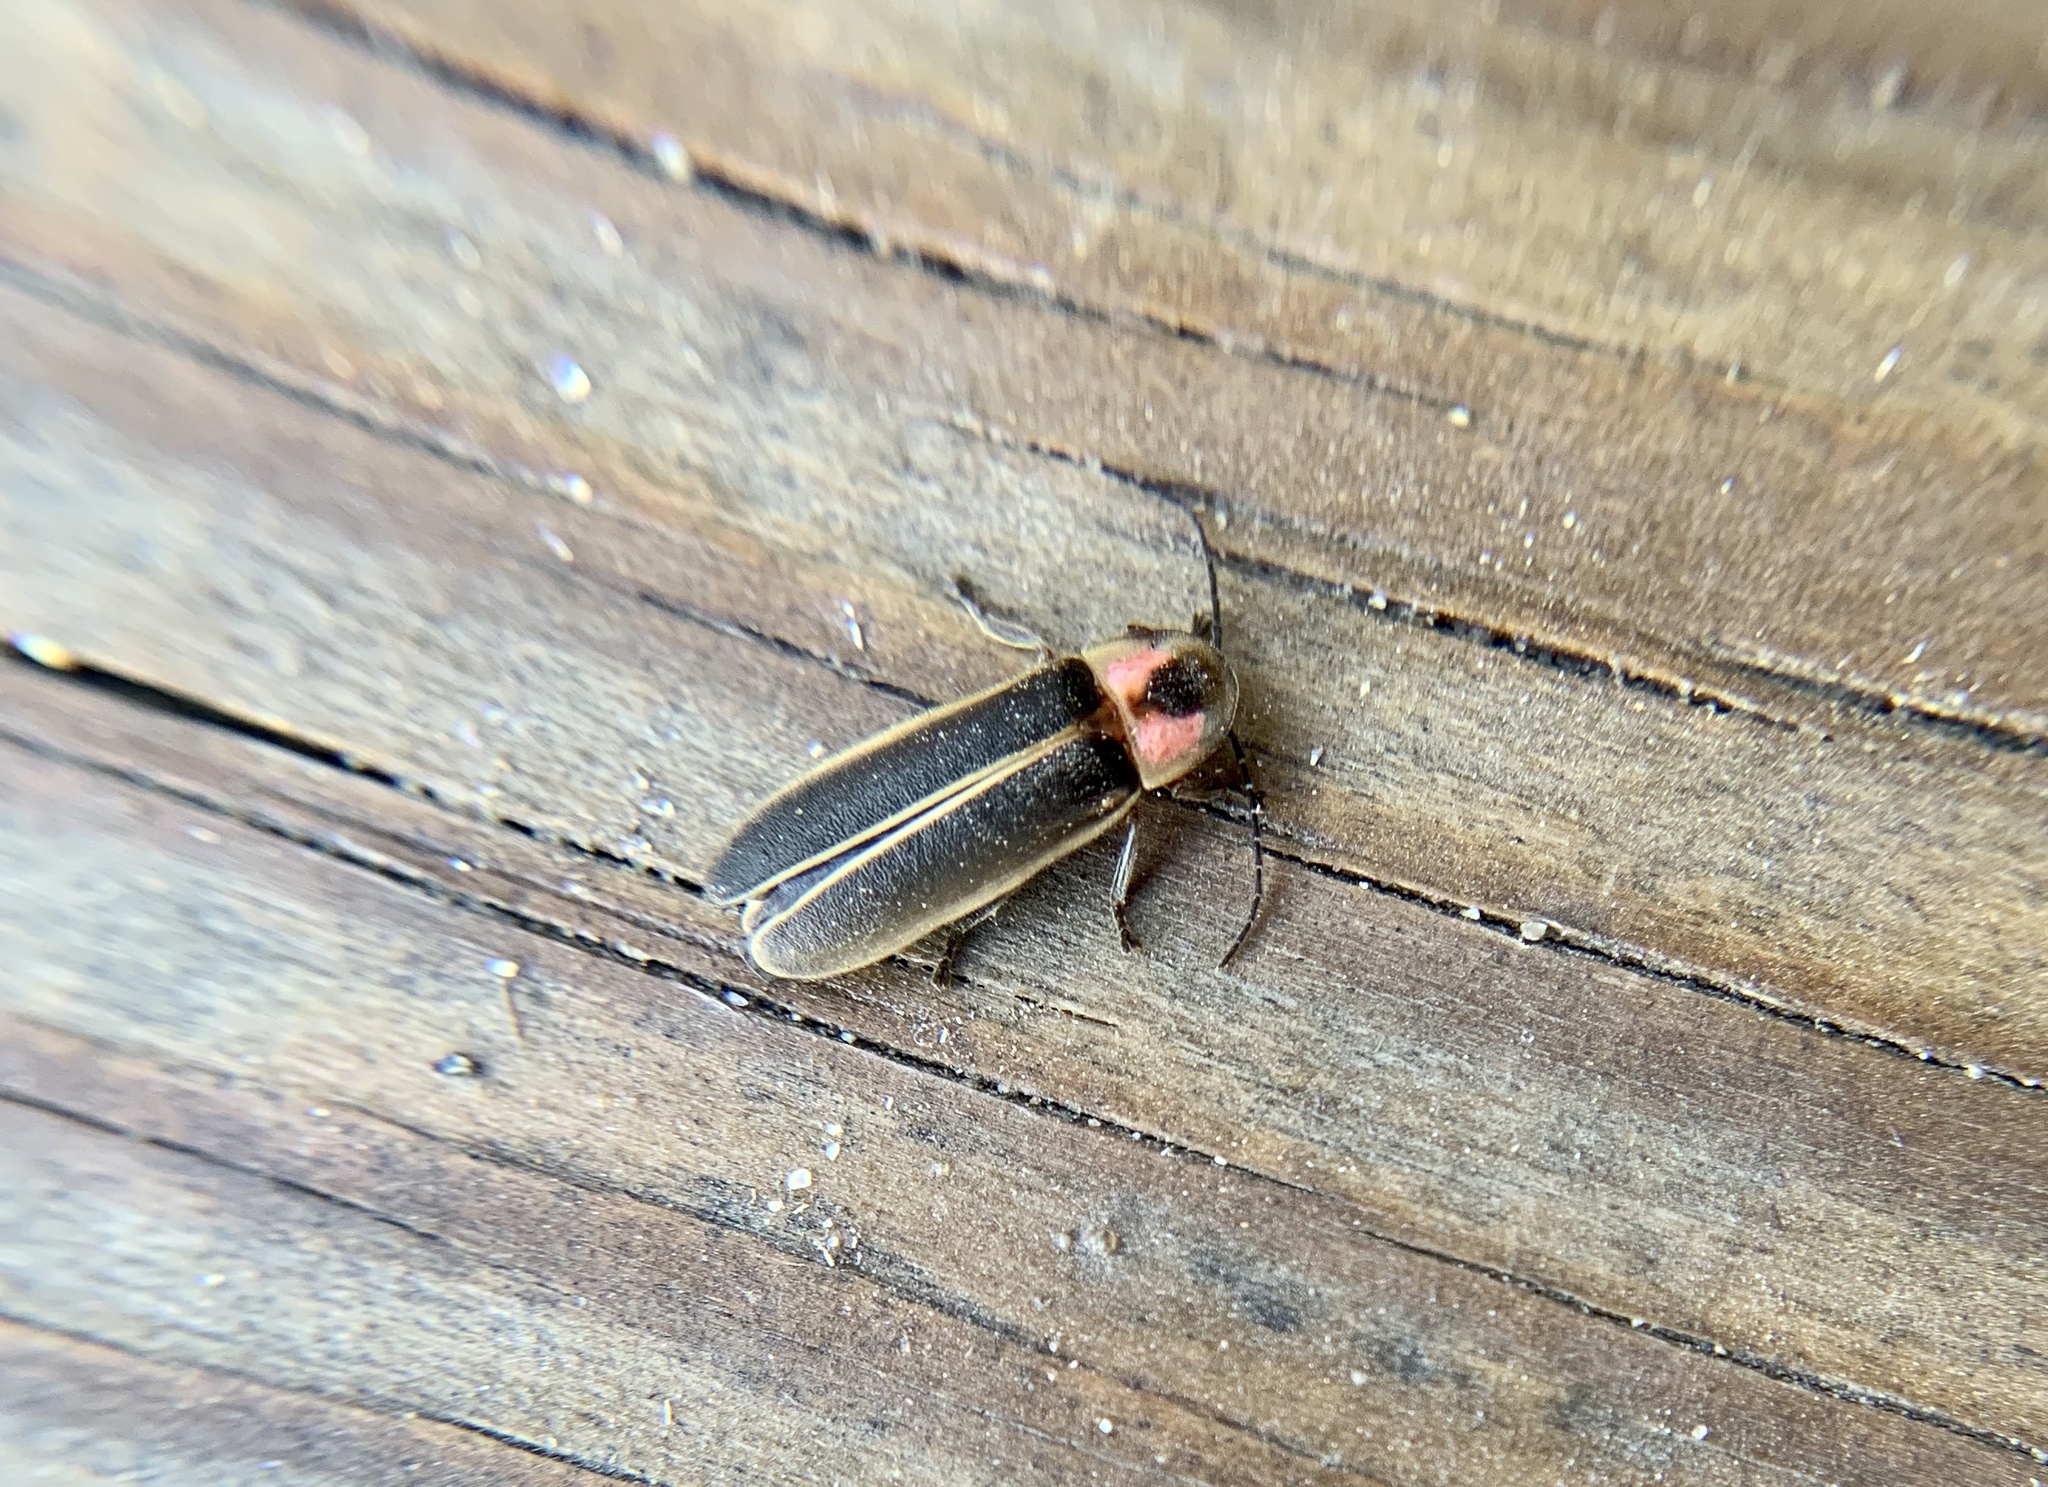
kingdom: Animalia
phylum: Arthropoda
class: Insecta
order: Coleoptera
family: Lampyridae
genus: Photinus
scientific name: Photinus pyralis
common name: Big dipper firefly
